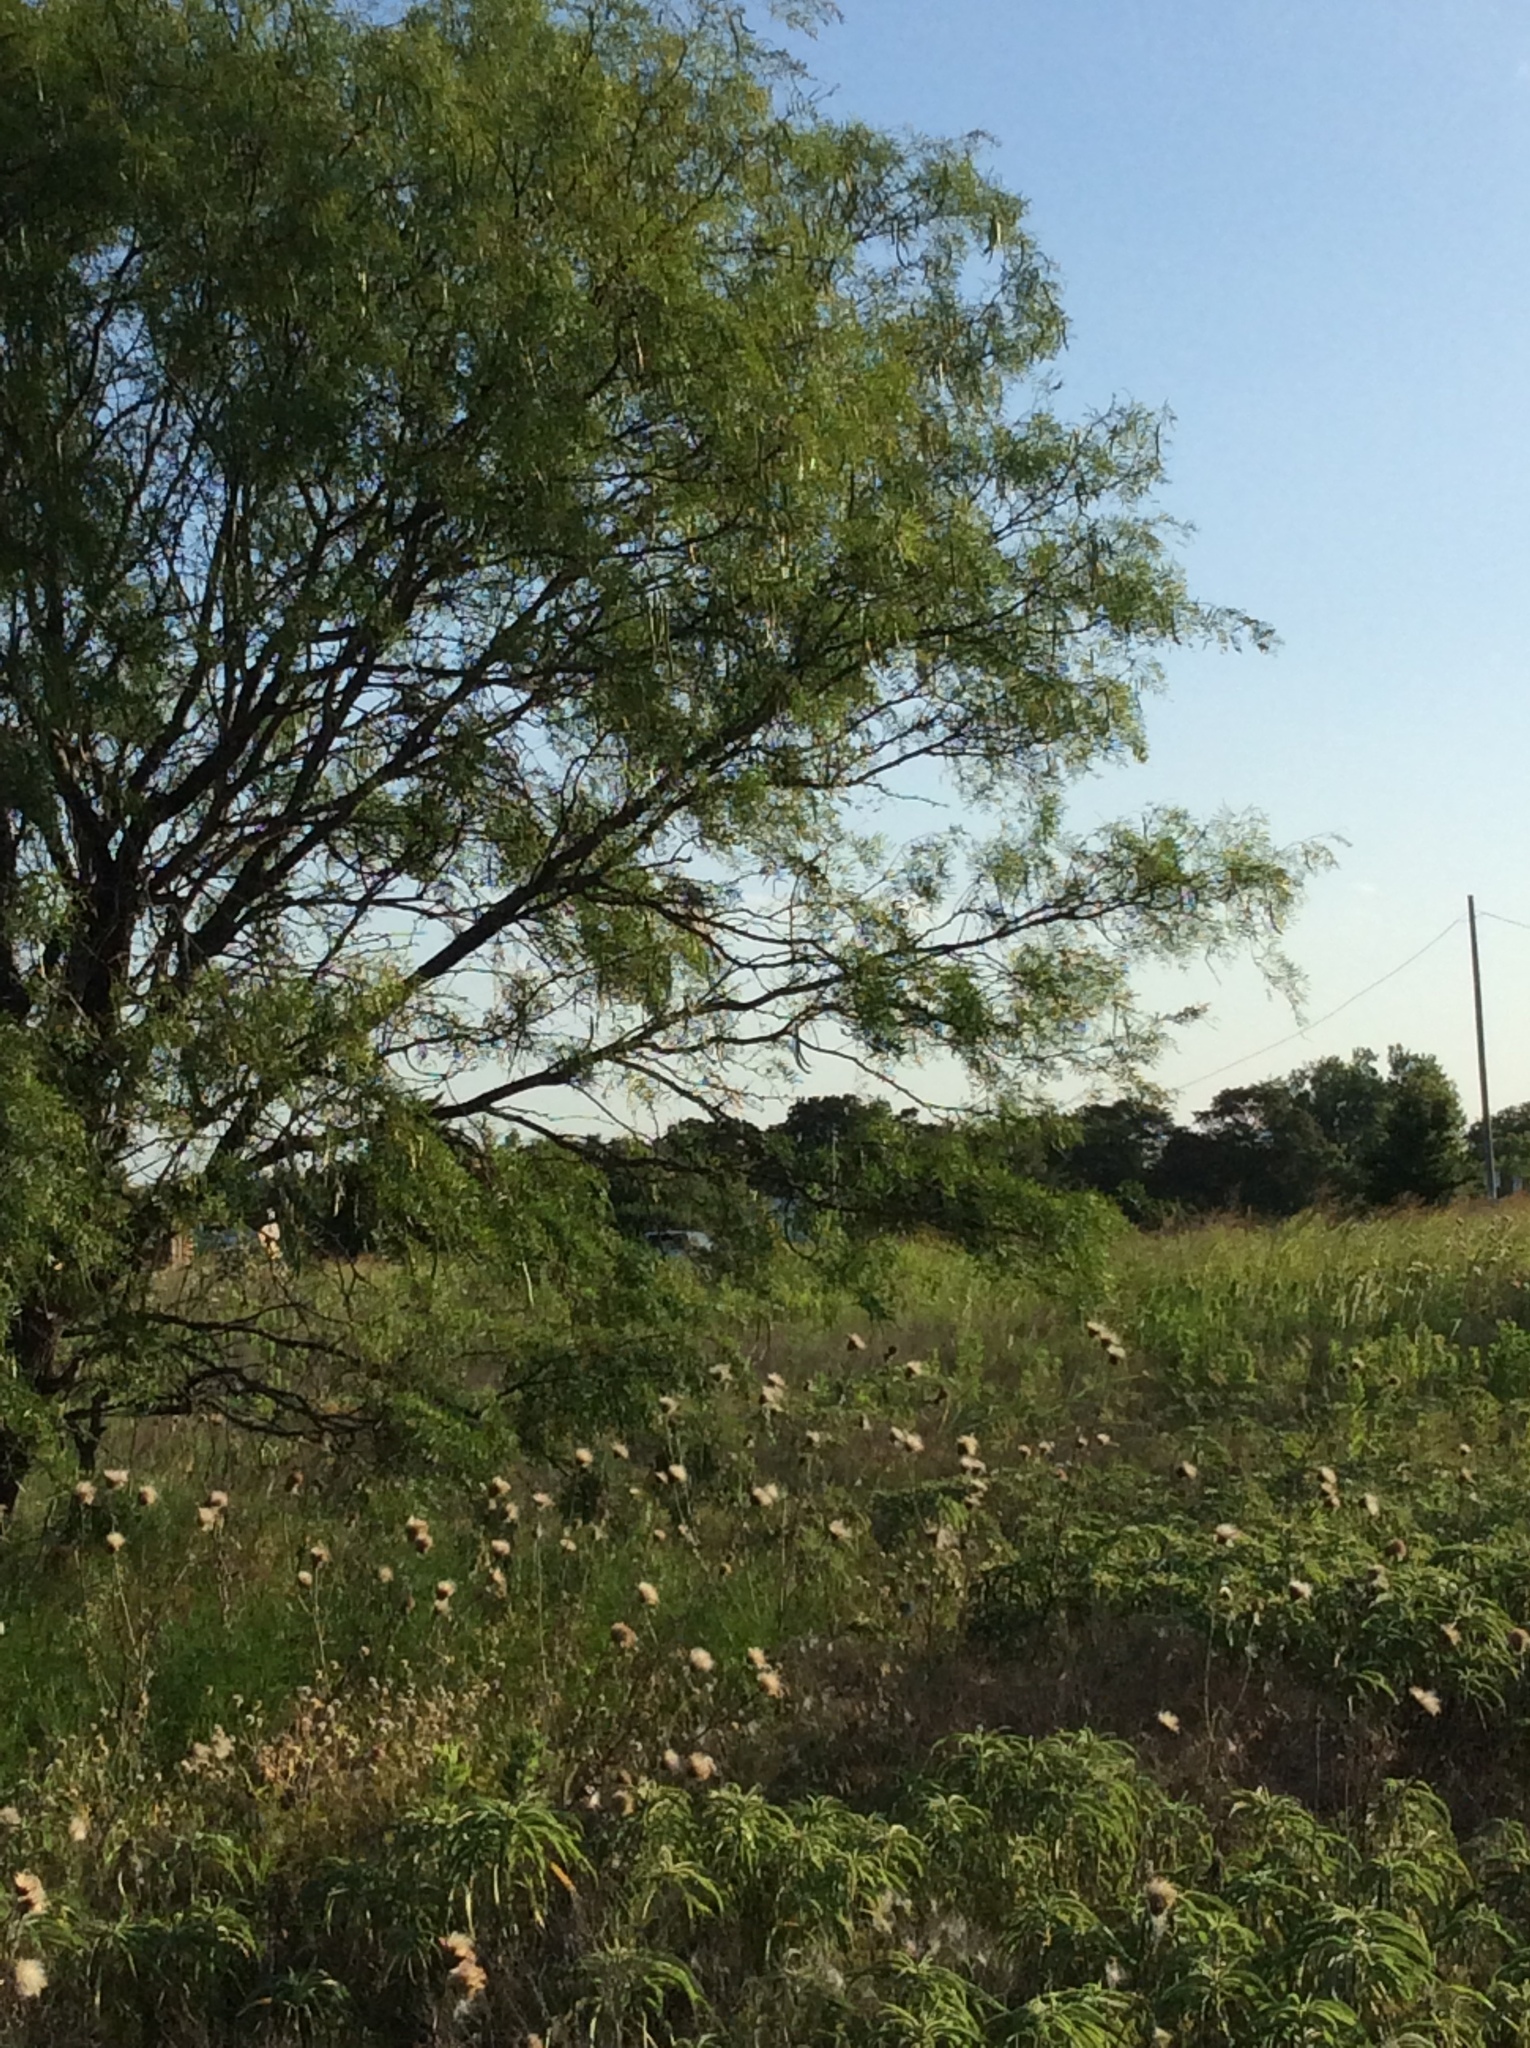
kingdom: Plantae
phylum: Tracheophyta
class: Magnoliopsida
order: Fabales
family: Fabaceae
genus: Prosopis
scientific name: Prosopis glandulosa
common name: Honey mesquite
